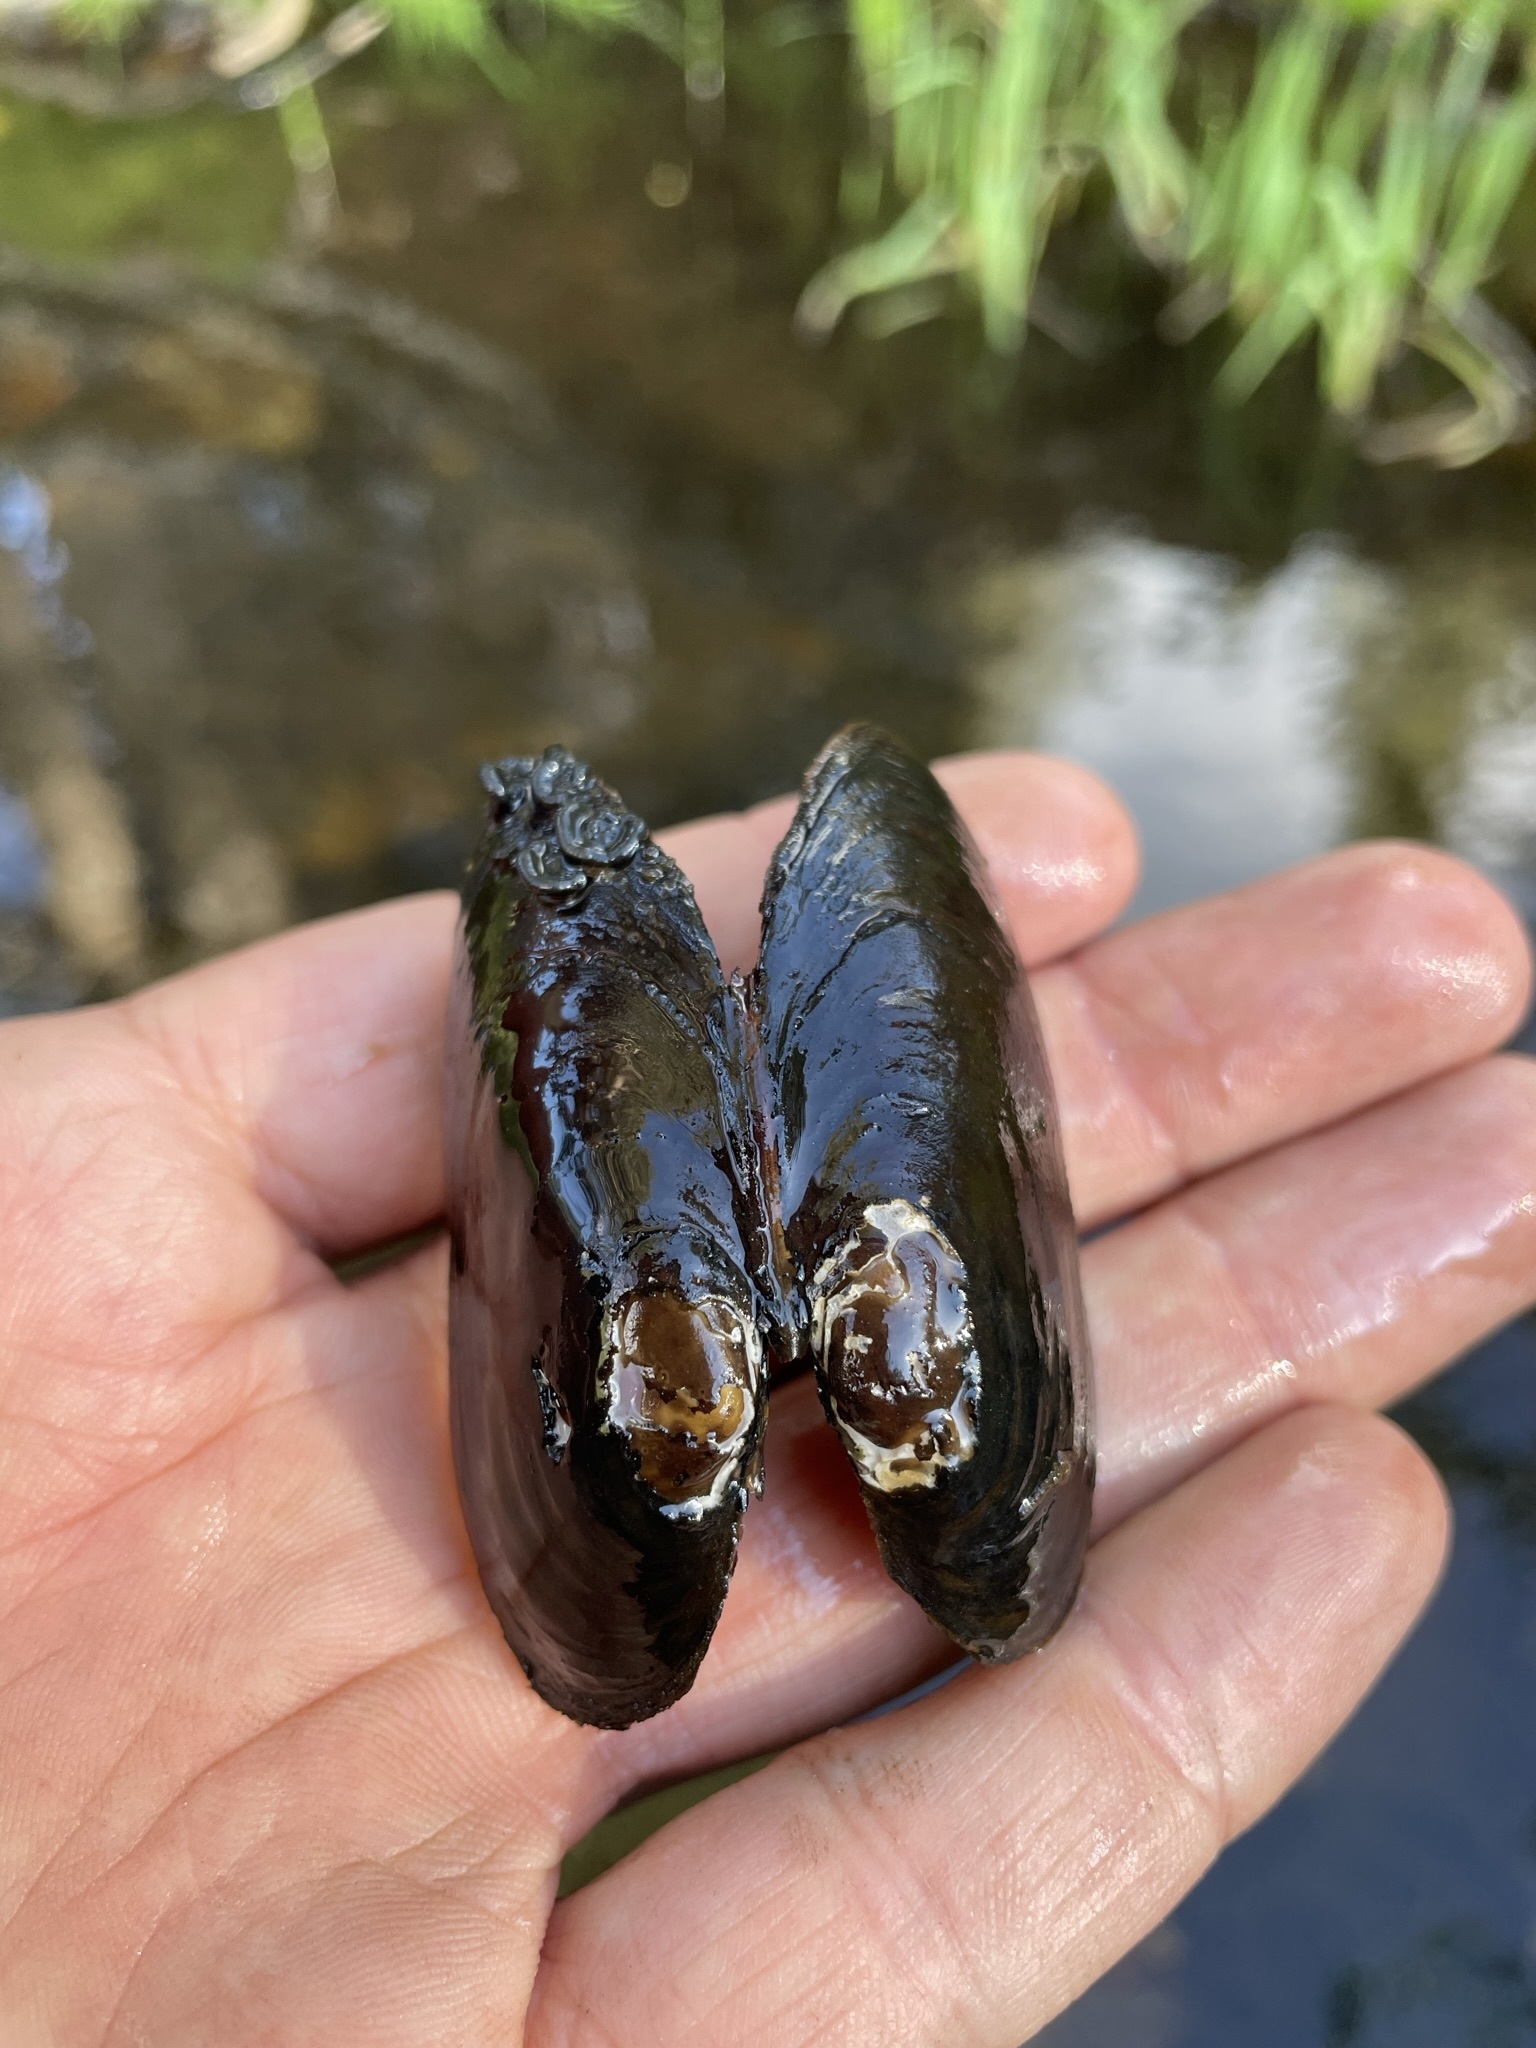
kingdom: Animalia
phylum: Mollusca
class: Bivalvia
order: Unionida
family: Margaritiferidae
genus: Margaritifera
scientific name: Margaritifera falcata
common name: Western pearlshell
